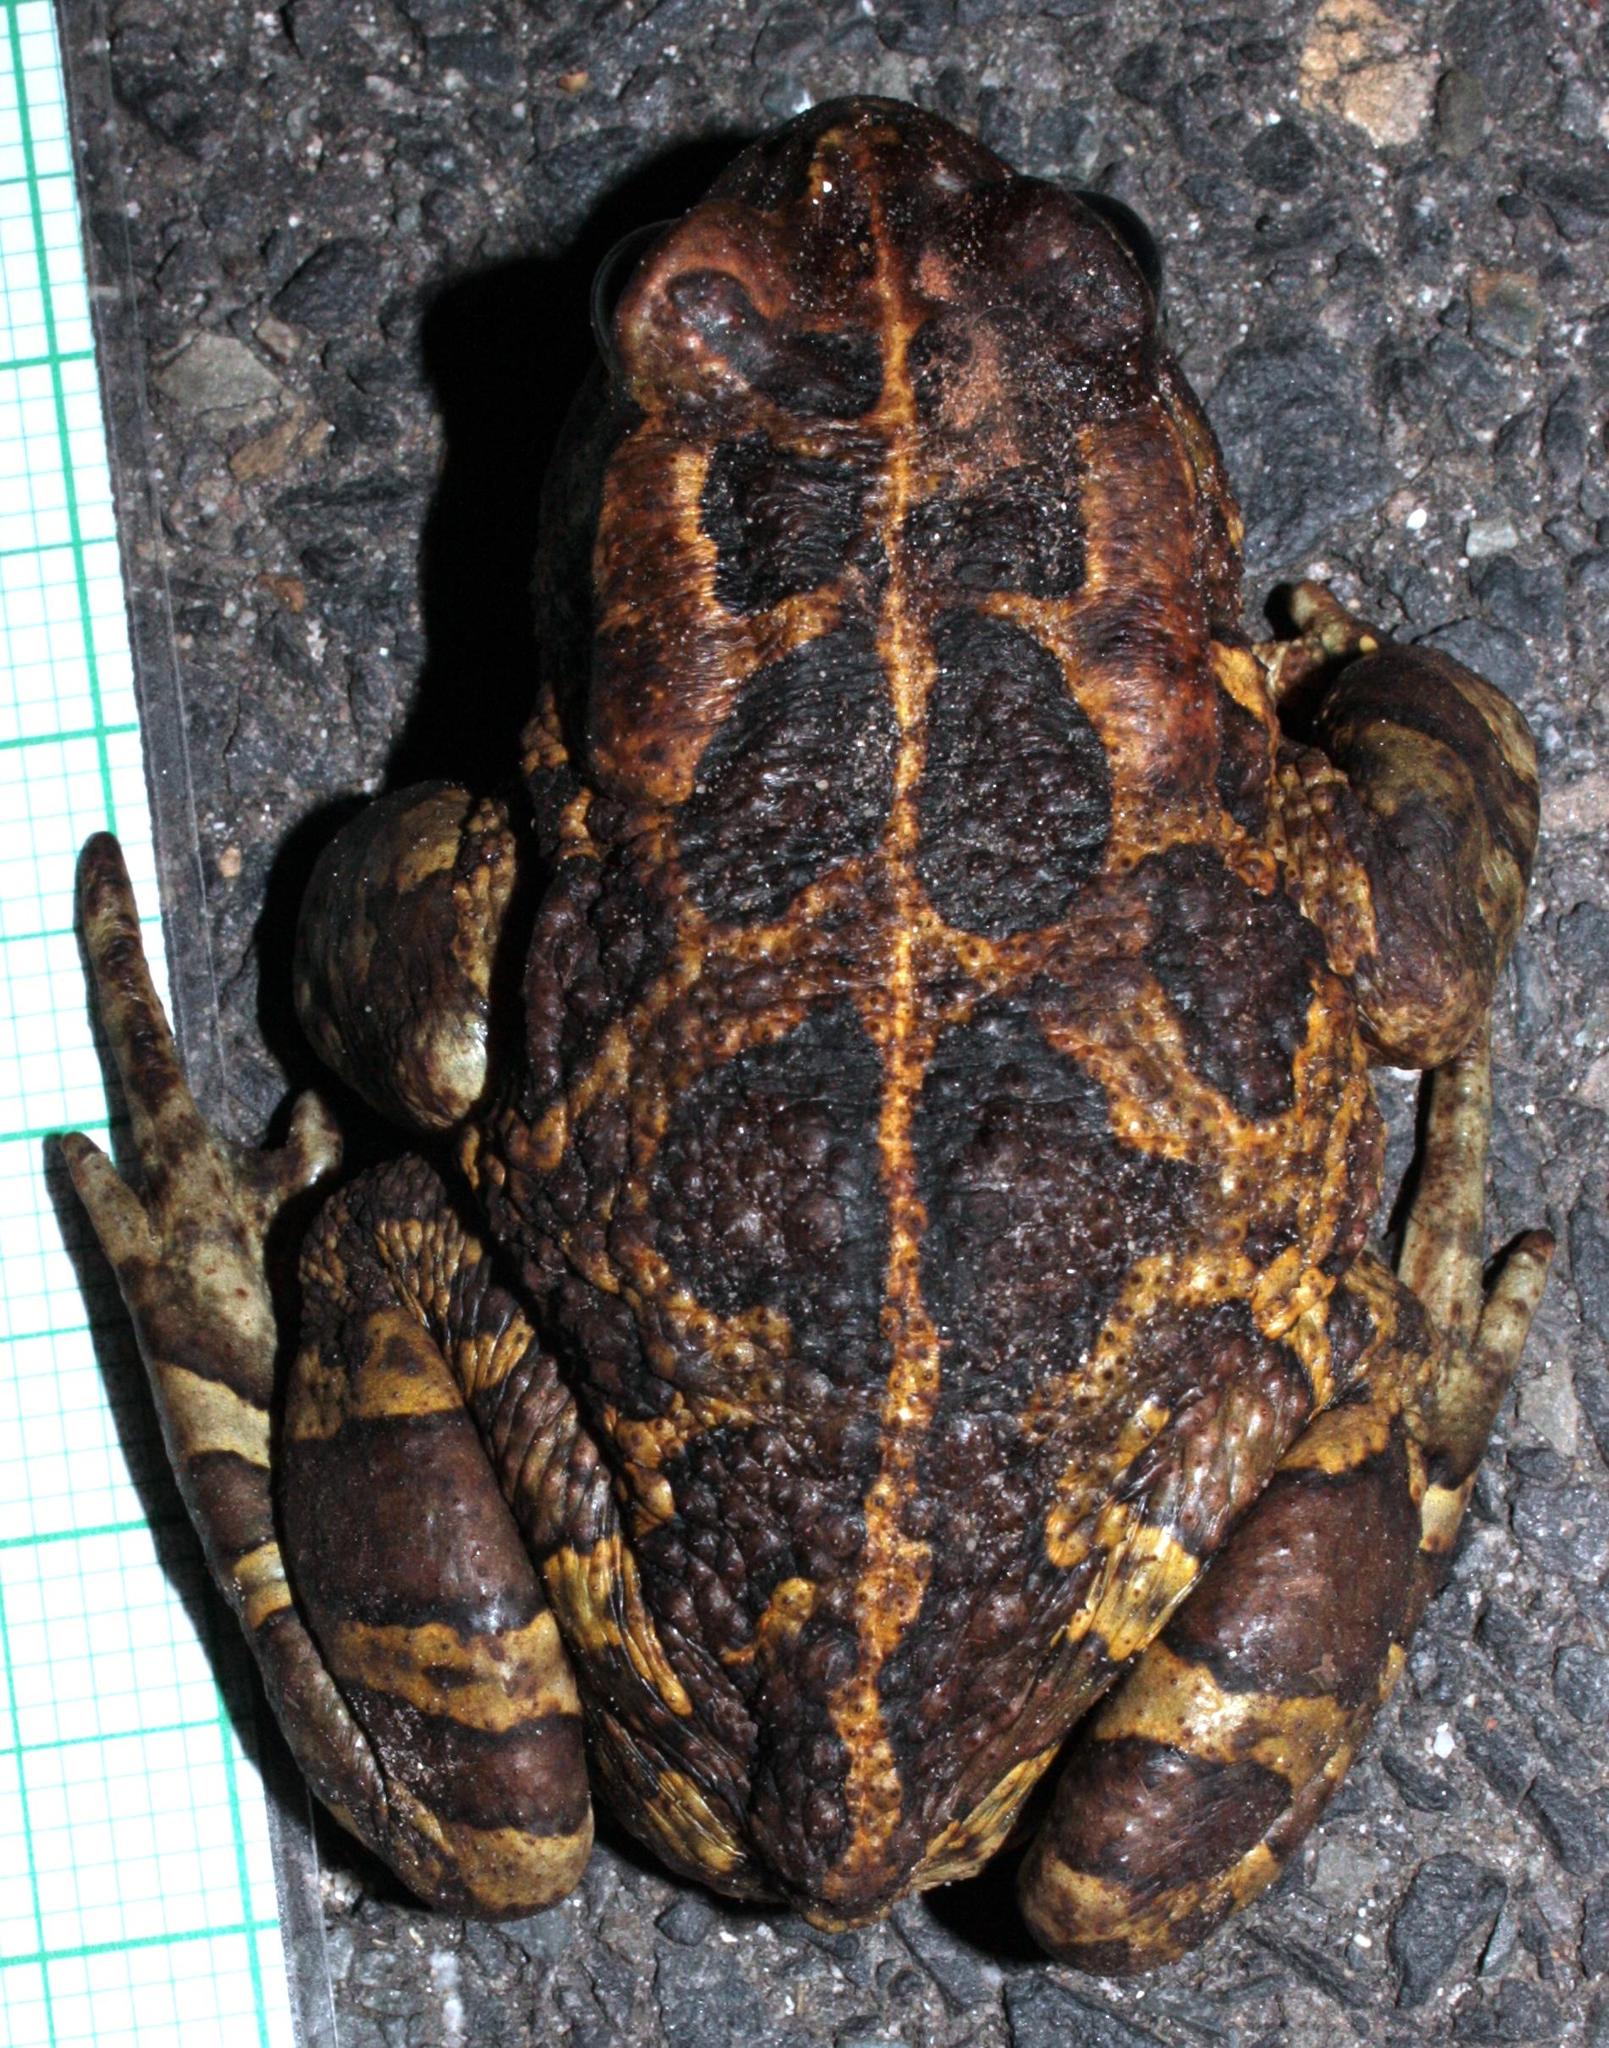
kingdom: Animalia
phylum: Chordata
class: Amphibia
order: Anura
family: Bufonidae
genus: Sclerophrys
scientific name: Sclerophrys pantherina
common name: Panther toad
